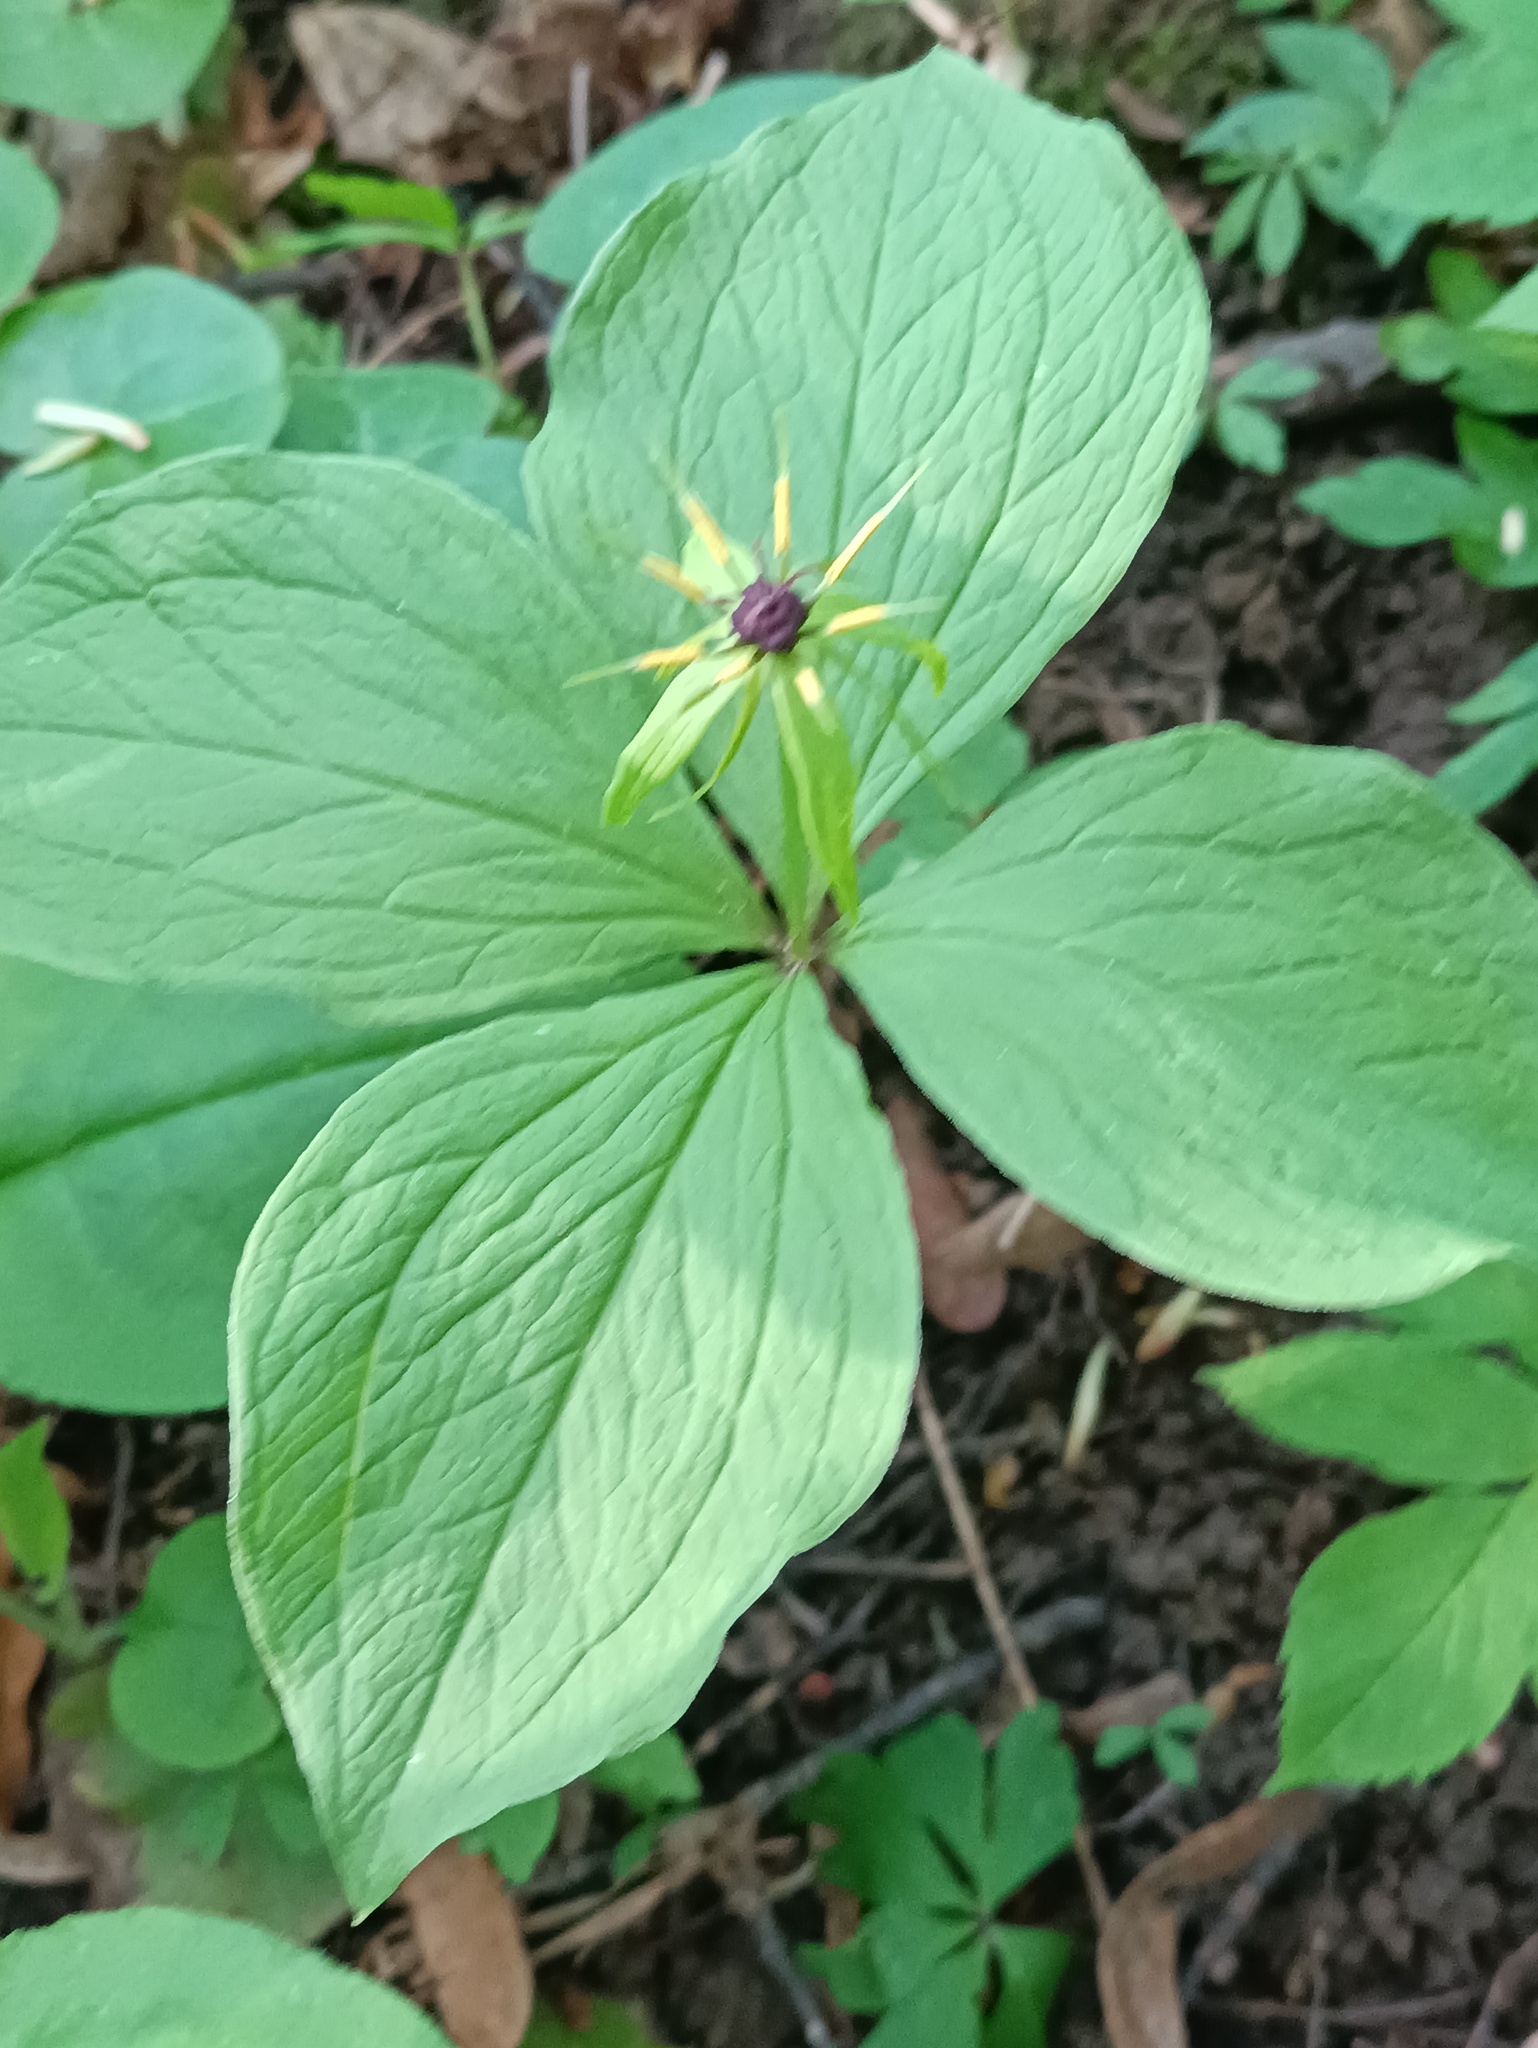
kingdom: Plantae
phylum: Tracheophyta
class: Liliopsida
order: Liliales
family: Melanthiaceae
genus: Paris
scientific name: Paris quadrifolia
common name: Herb-paris
